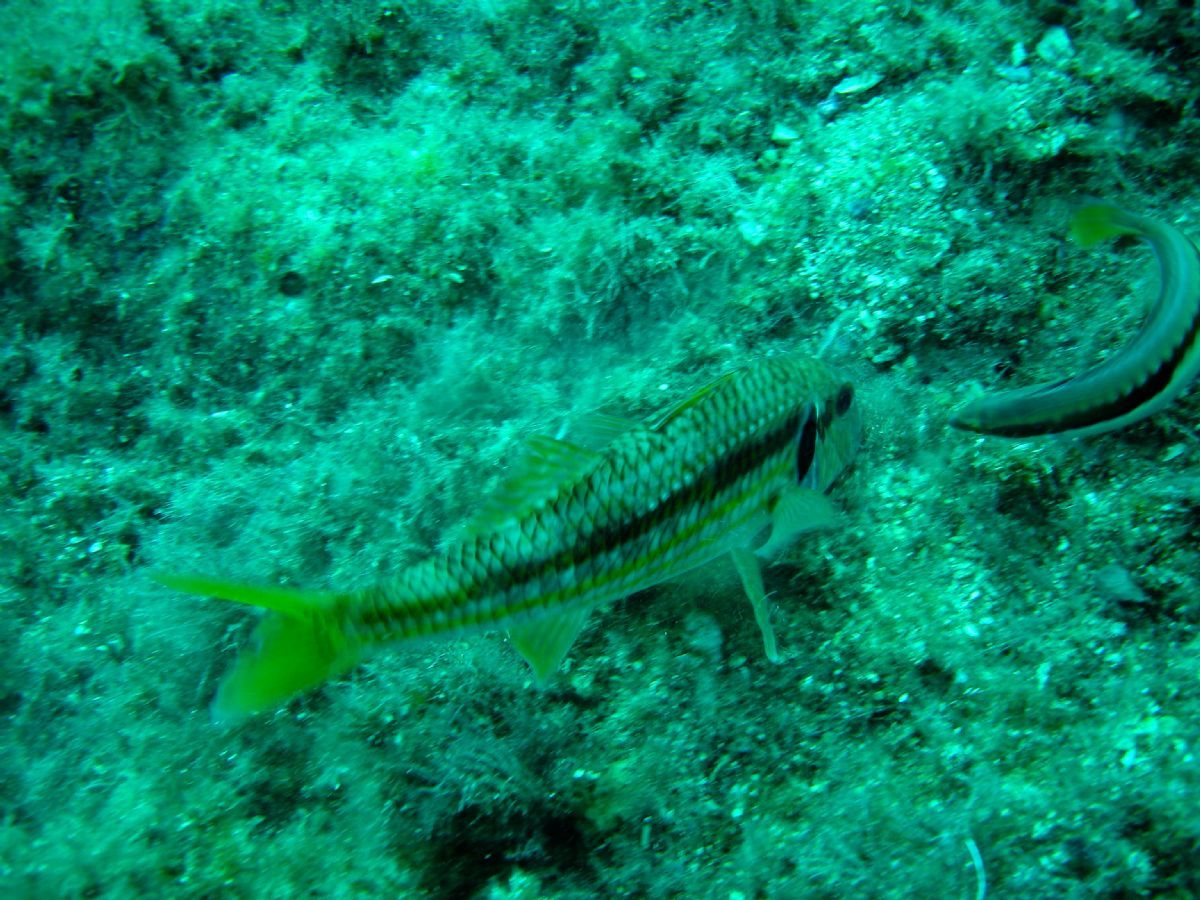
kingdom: Animalia
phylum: Chordata
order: Perciformes
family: Mullidae
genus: Mullus
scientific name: Mullus surmuletus
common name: Red mullet
